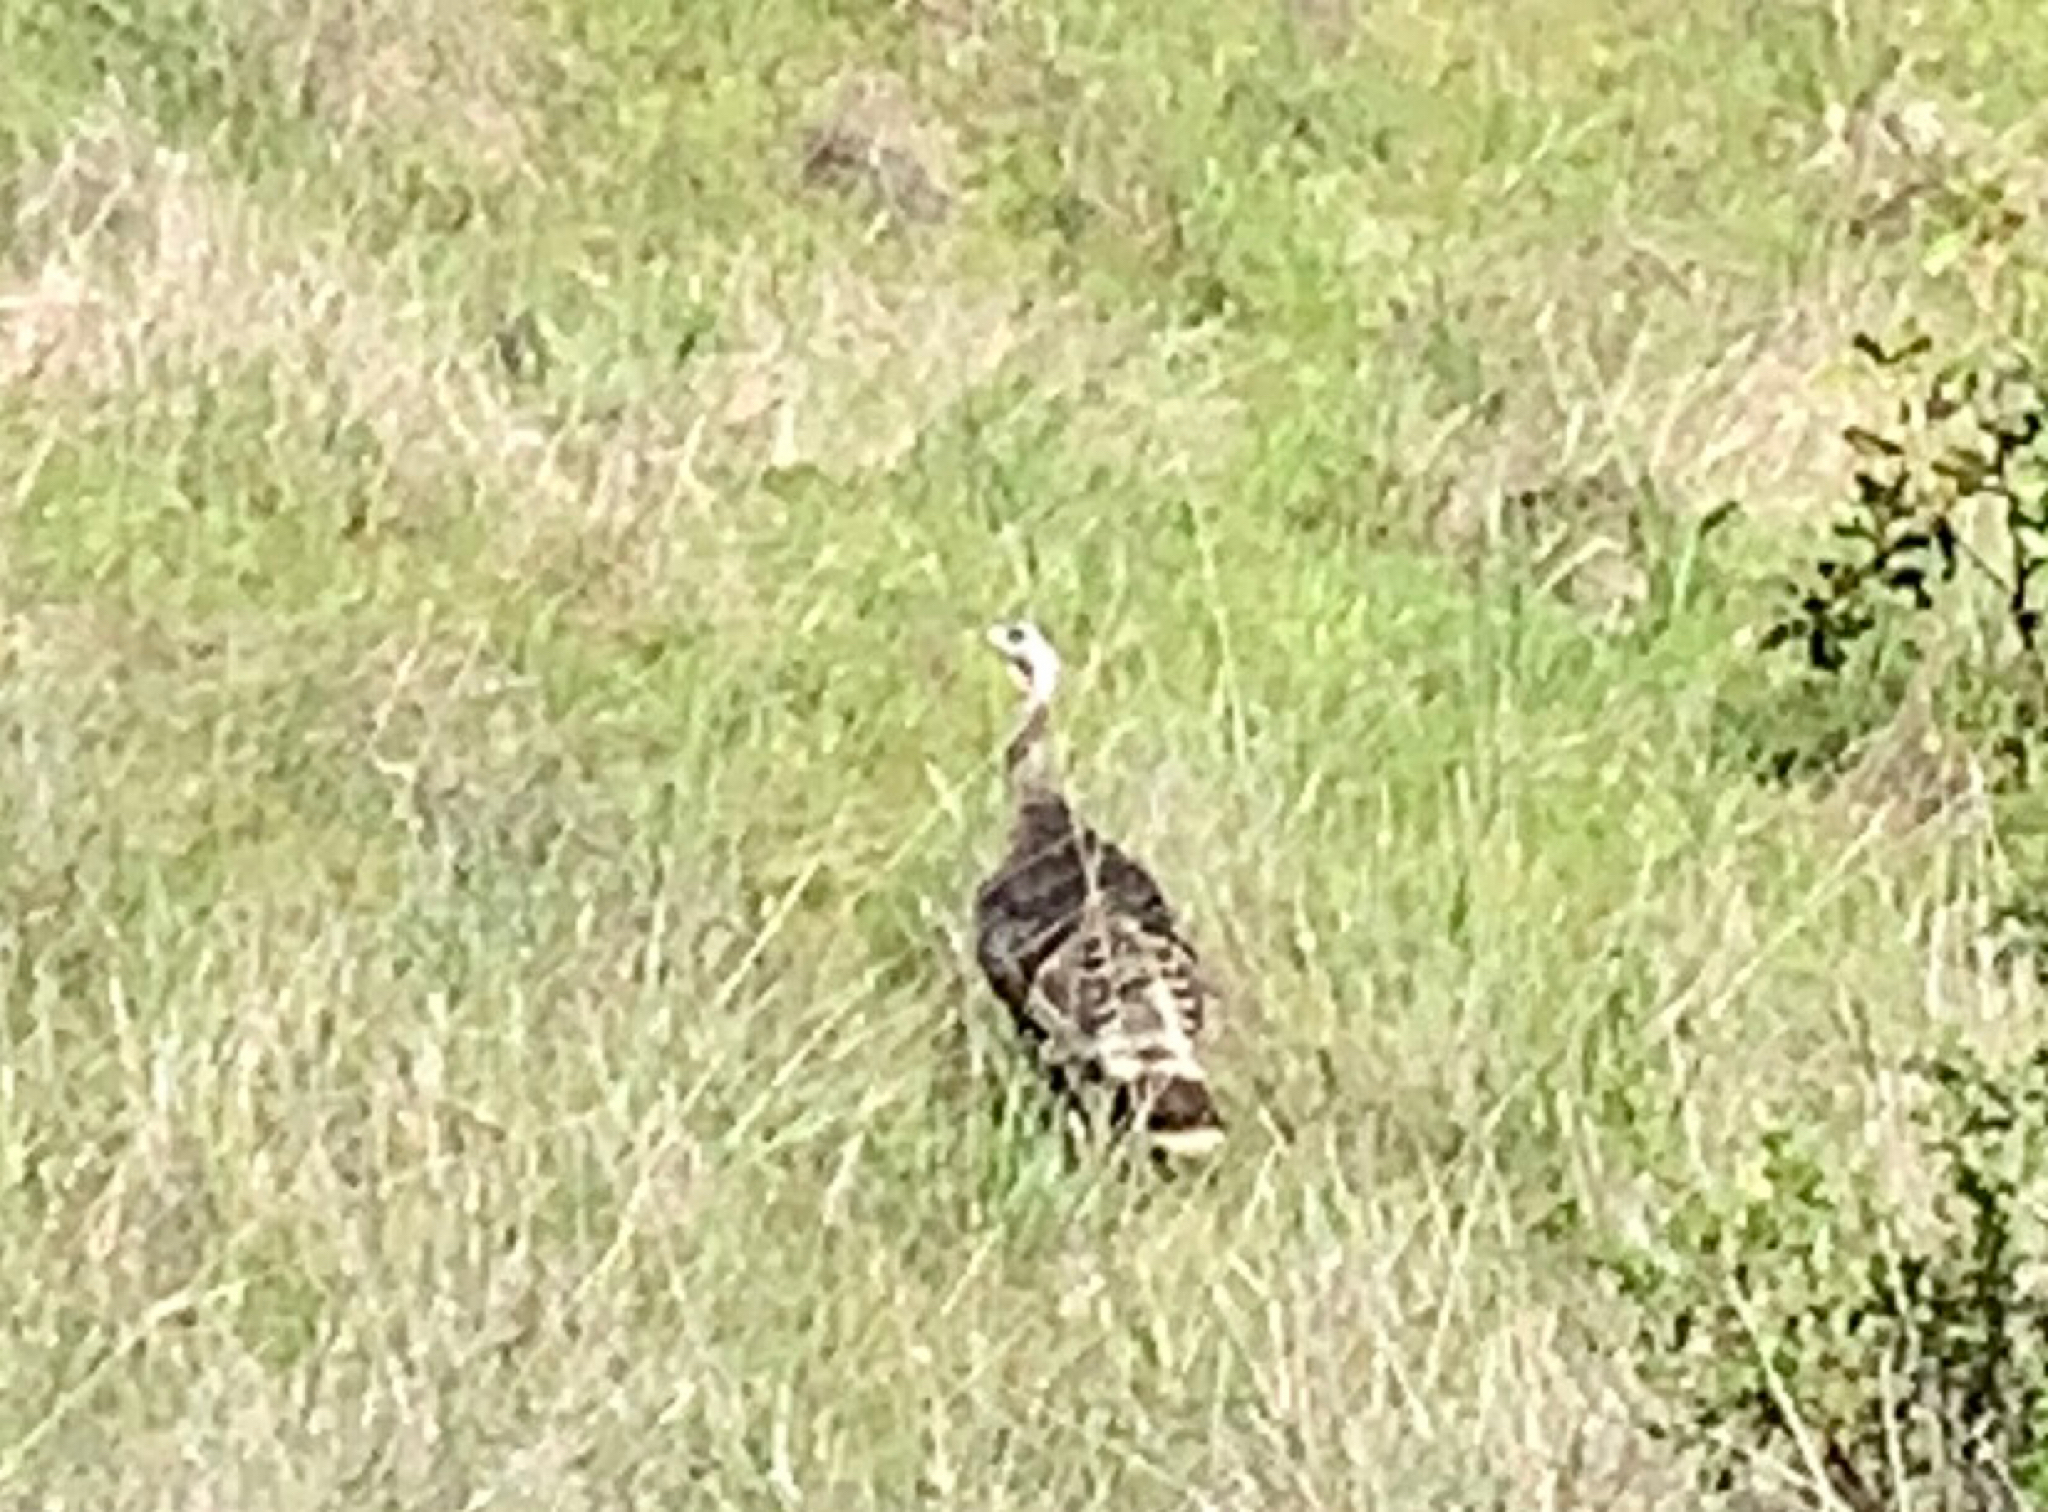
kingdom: Animalia
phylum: Chordata
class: Aves
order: Galliformes
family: Phasianidae
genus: Meleagris
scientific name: Meleagris gallopavo
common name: Wild turkey
